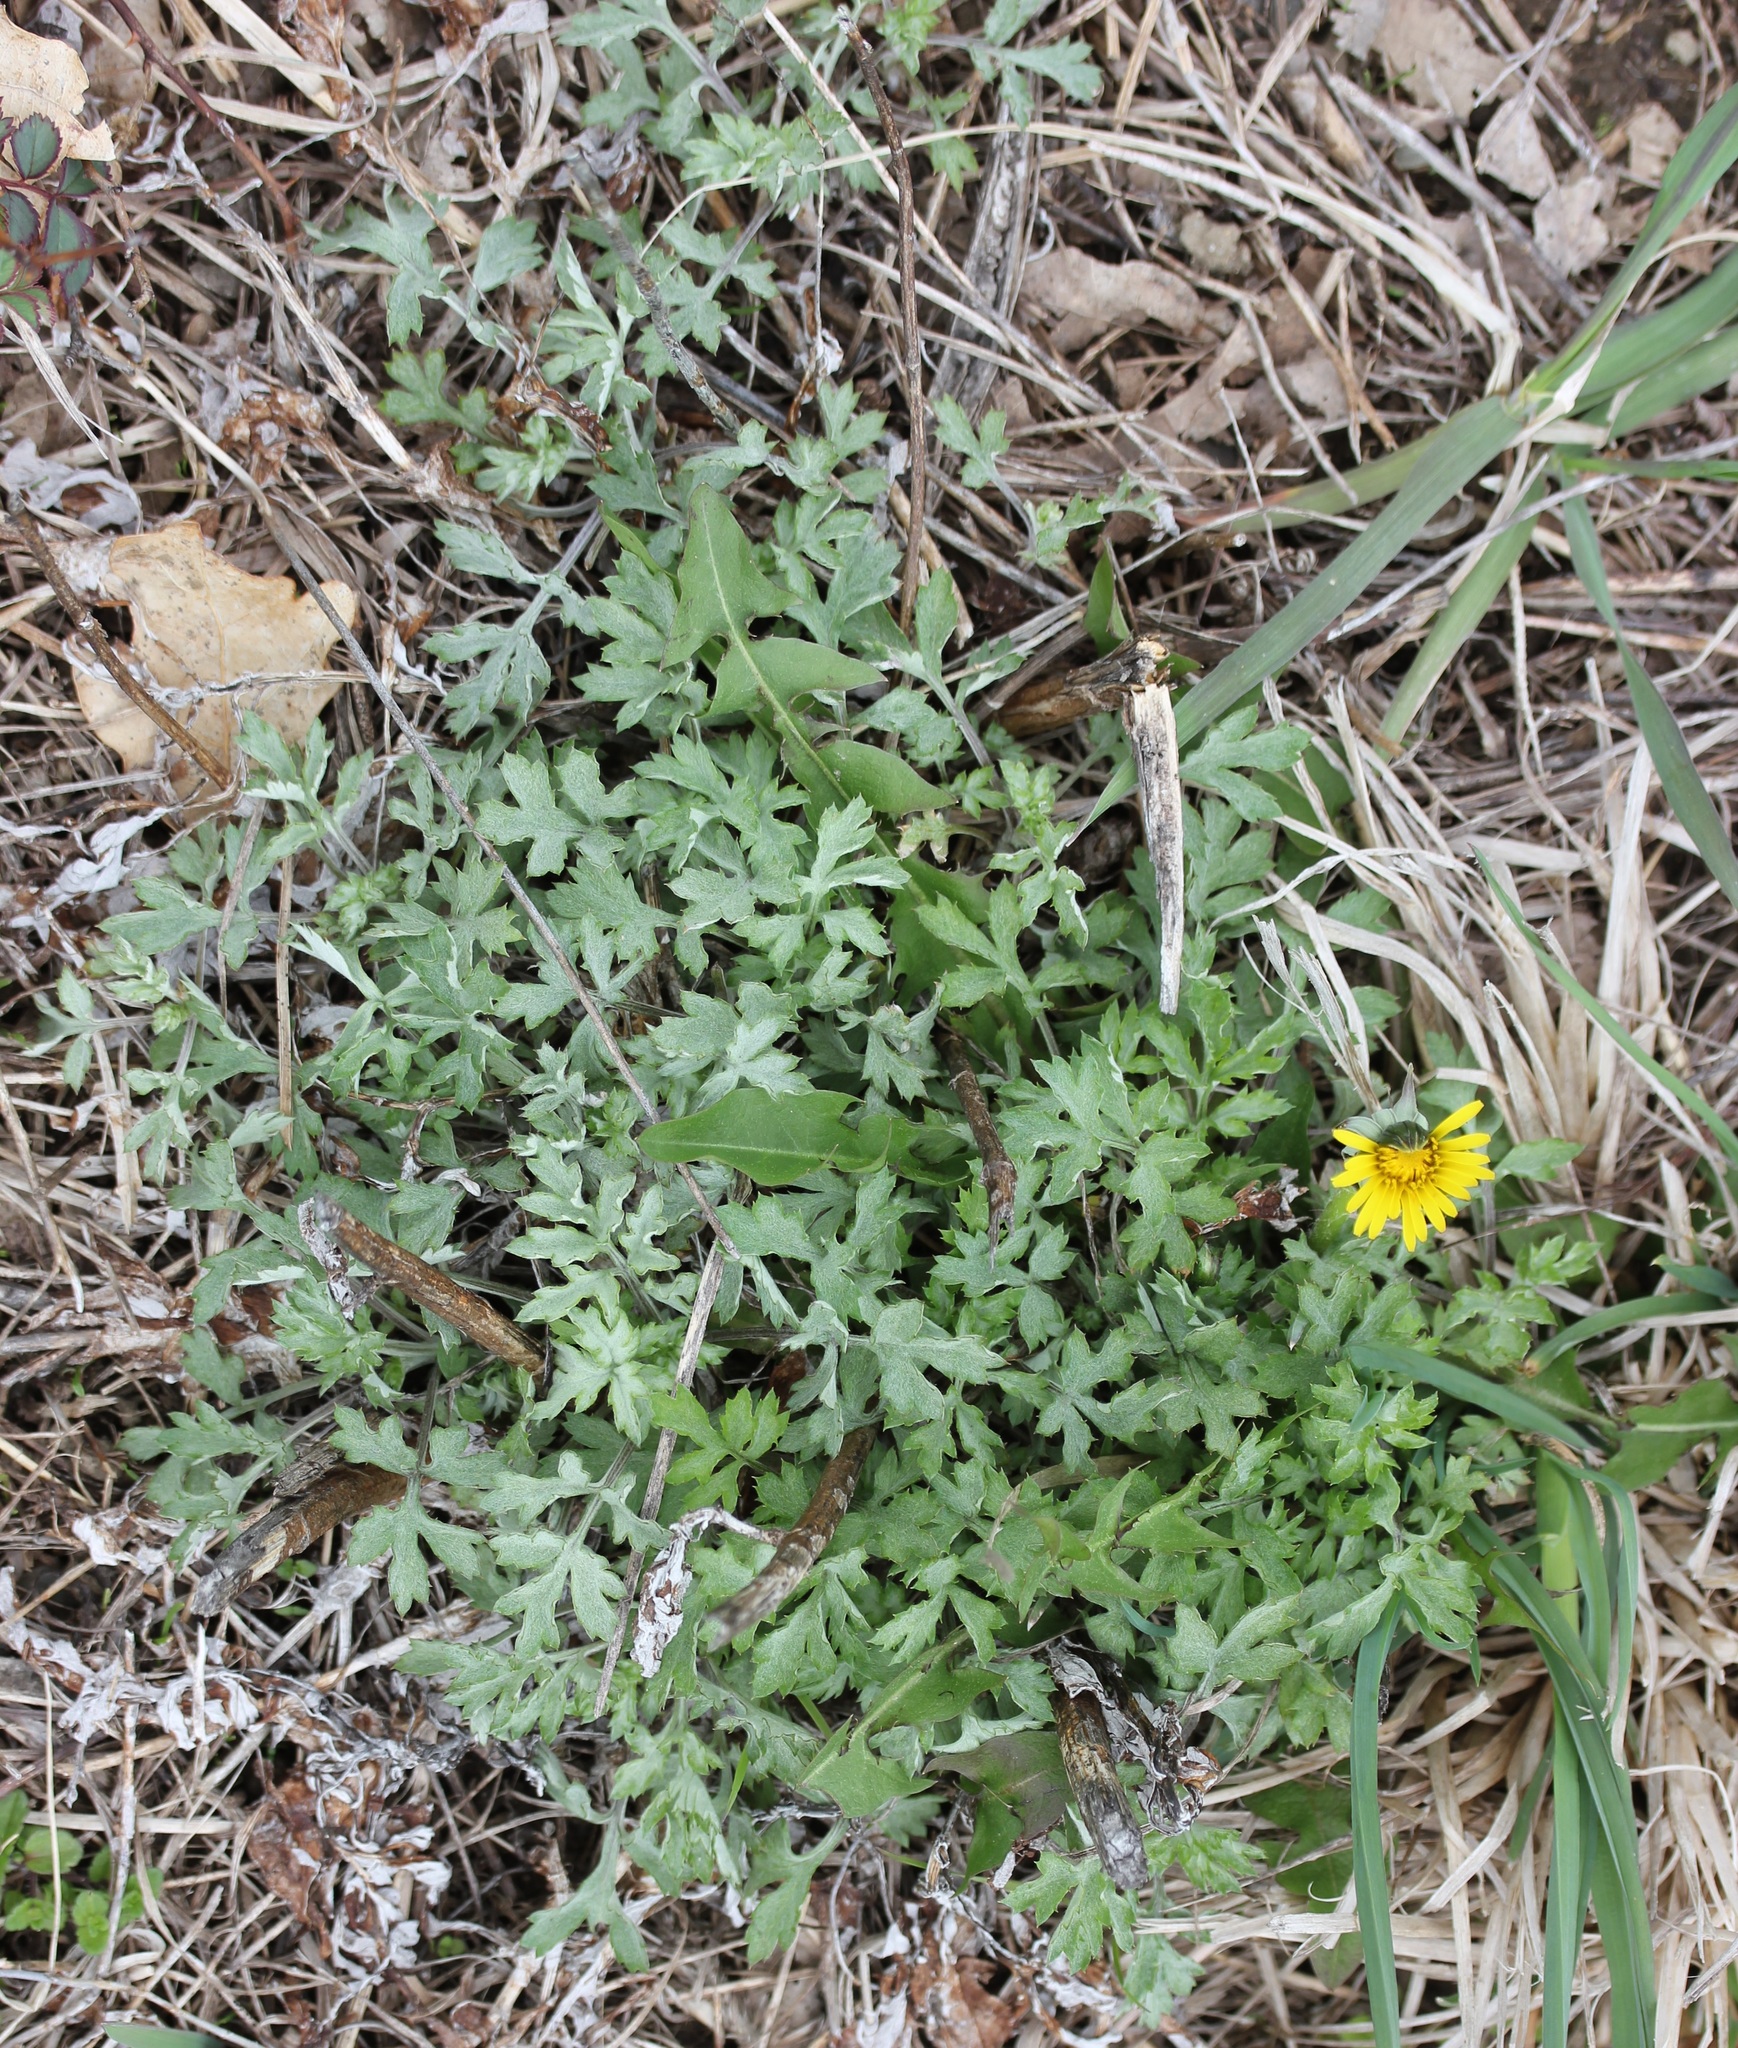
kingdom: Plantae
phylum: Tracheophyta
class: Magnoliopsida
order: Asterales
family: Asteraceae
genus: Artemisia
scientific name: Artemisia vulgaris
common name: Mugwort
